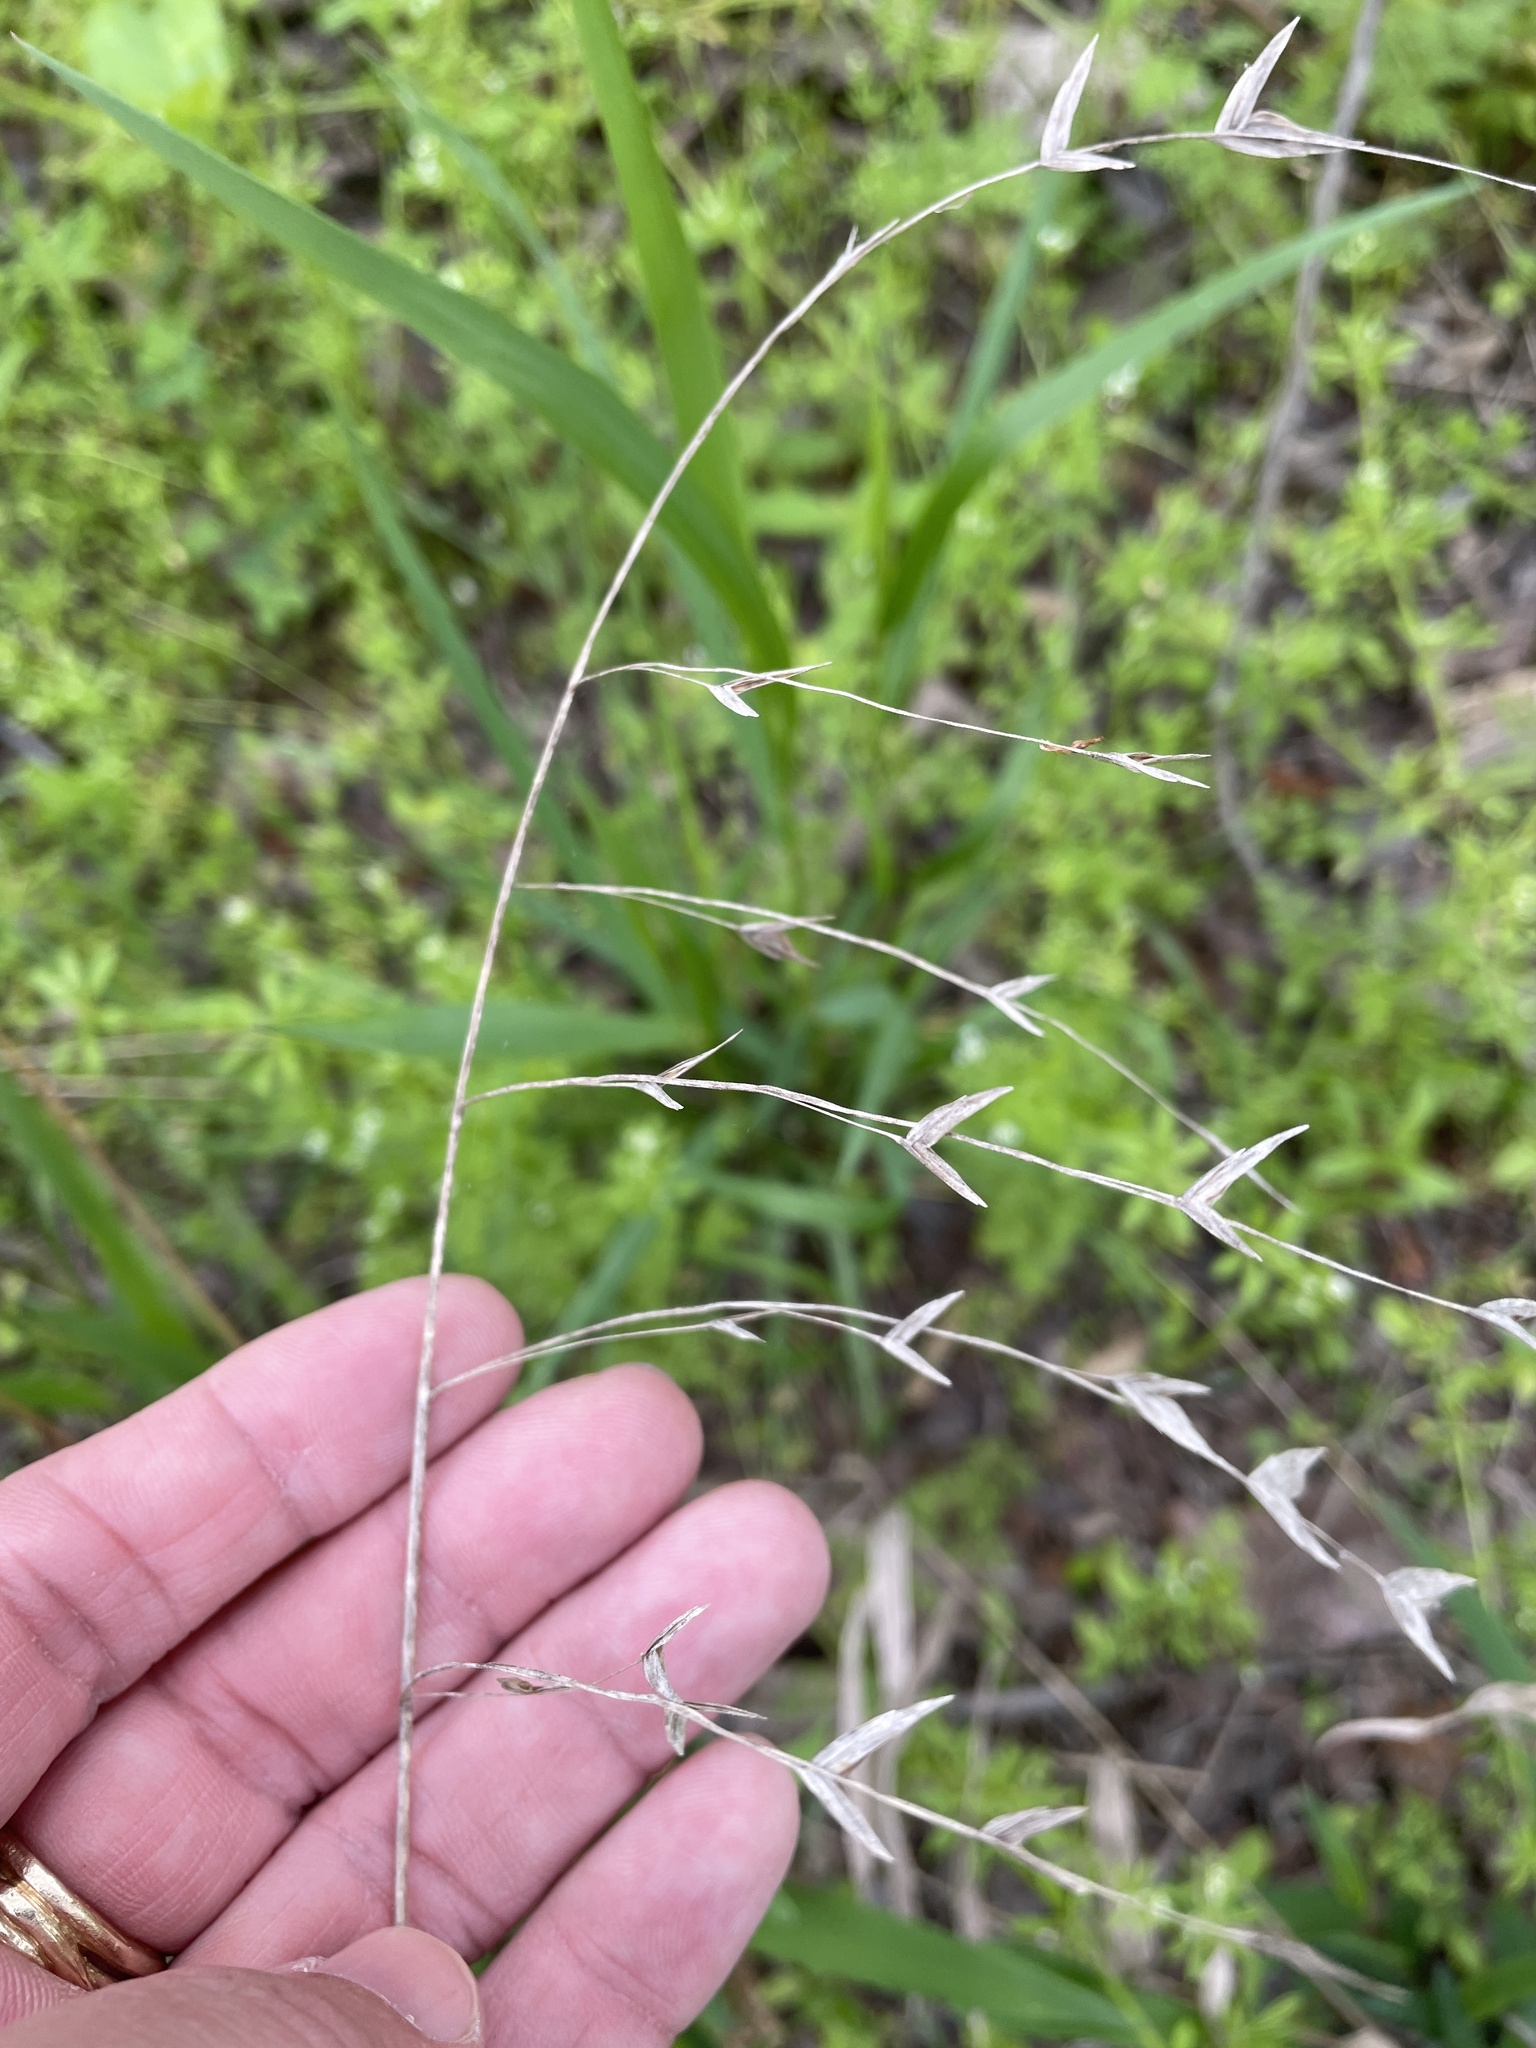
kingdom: Plantae
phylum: Tracheophyta
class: Liliopsida
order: Poales
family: Poaceae
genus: Chasmanthium
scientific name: Chasmanthium latifolium
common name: Broad-leaved chasmanthium
